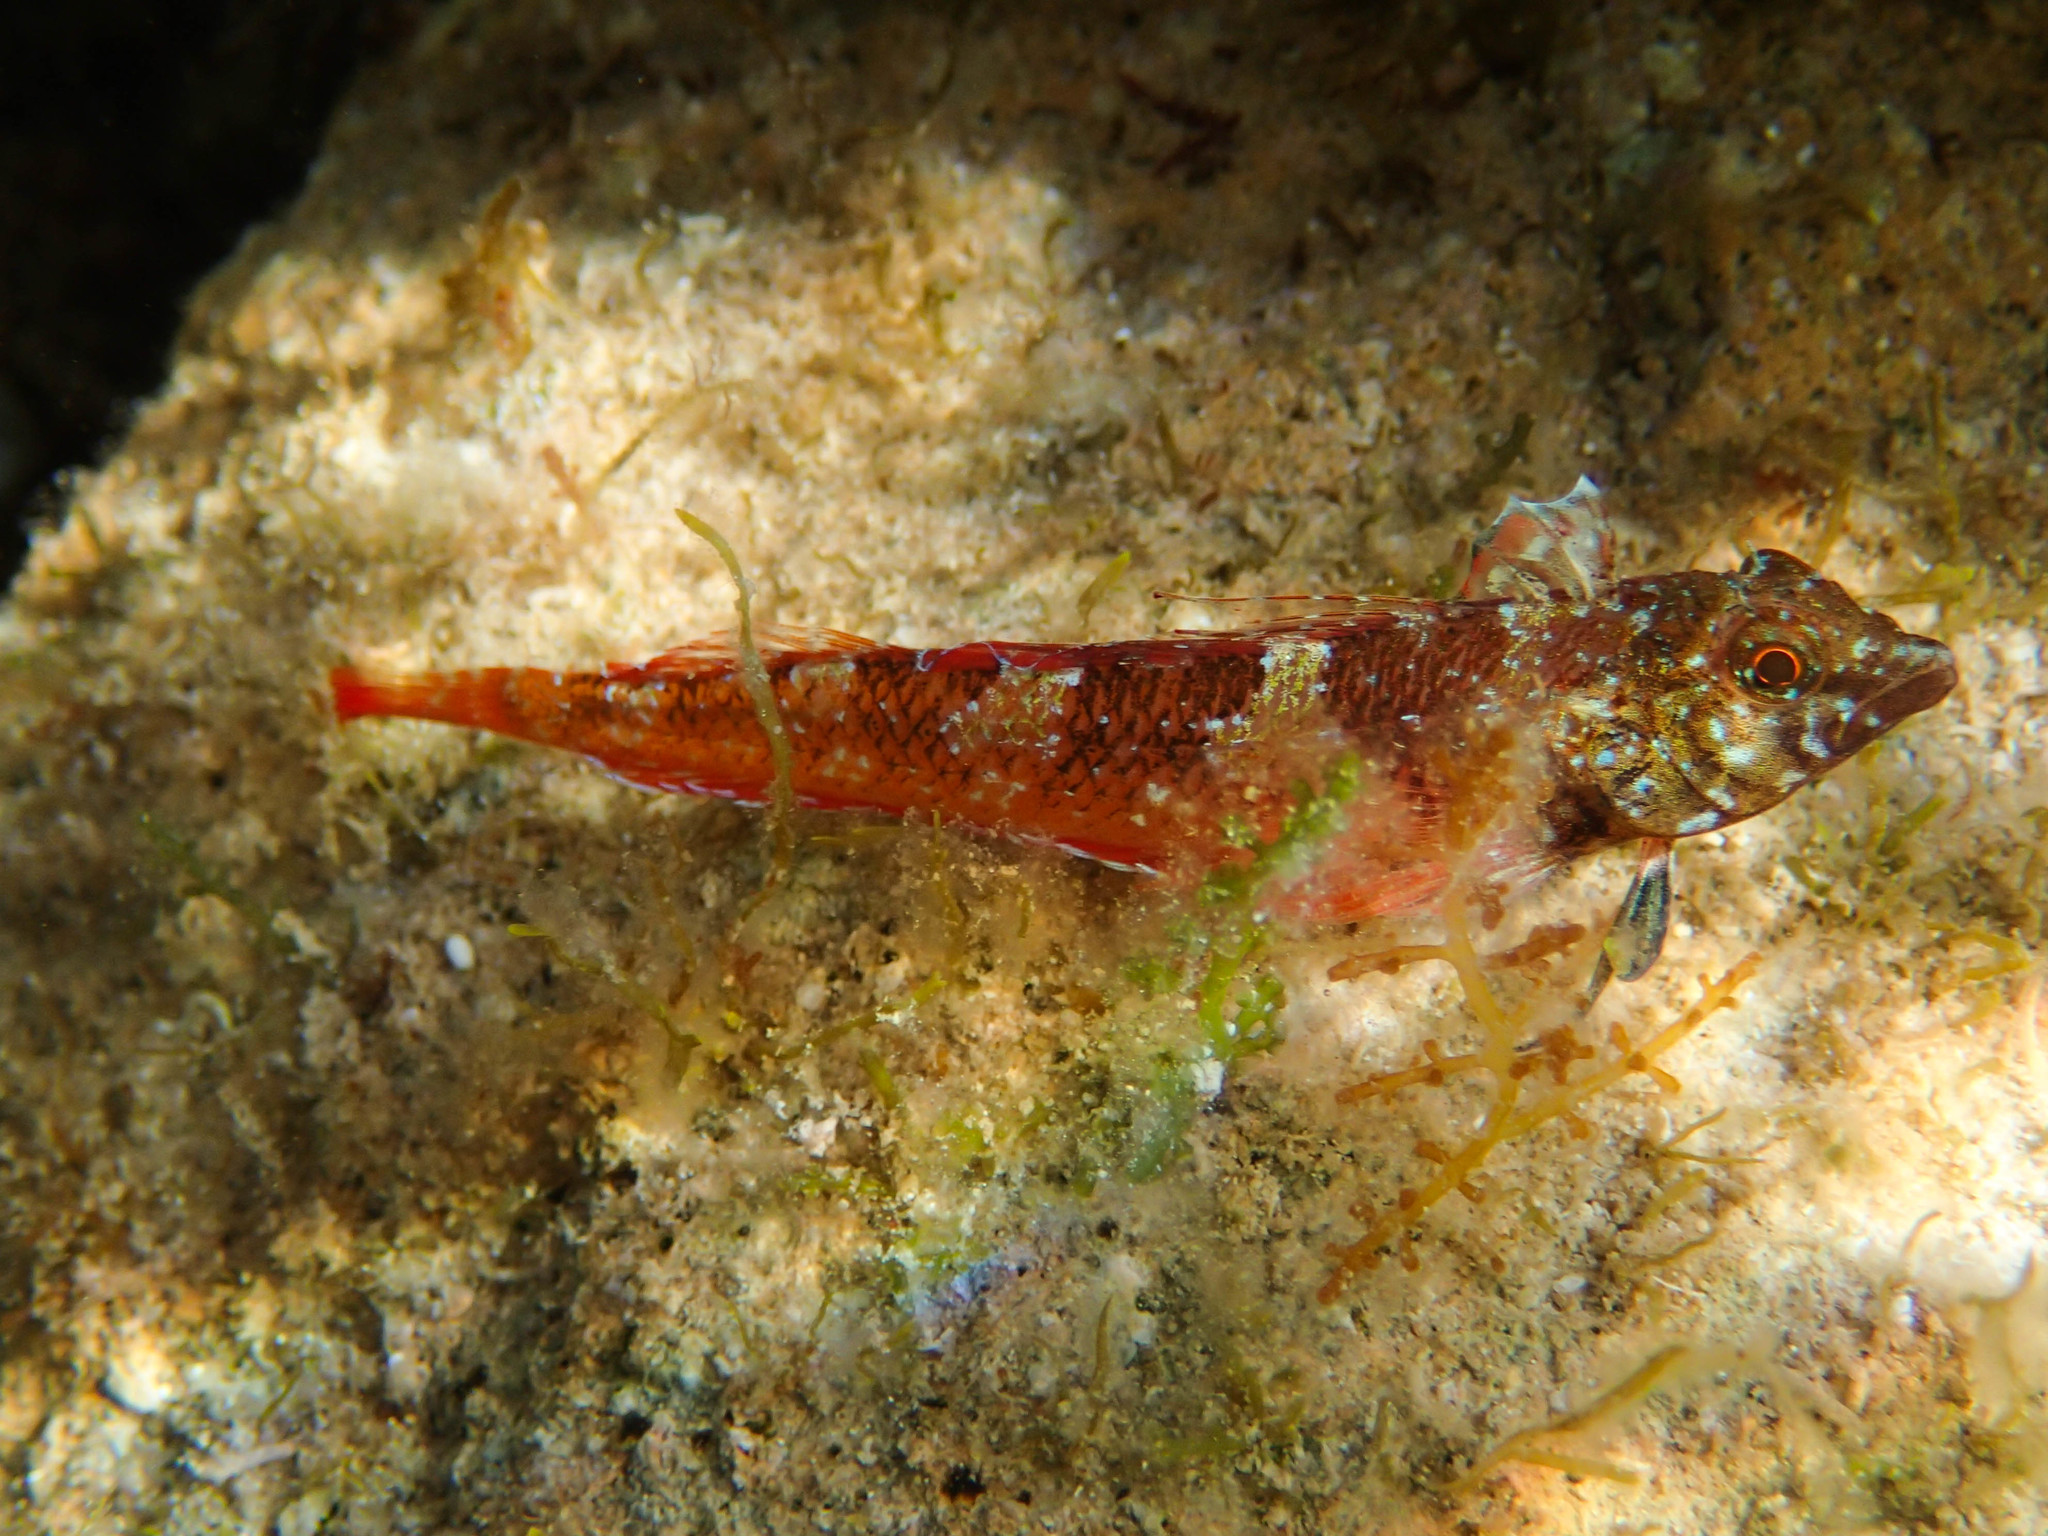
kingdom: Animalia
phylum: Chordata
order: Perciformes
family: Tripterygiidae
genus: Tripterygion
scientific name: Tripterygion tripteronotum
